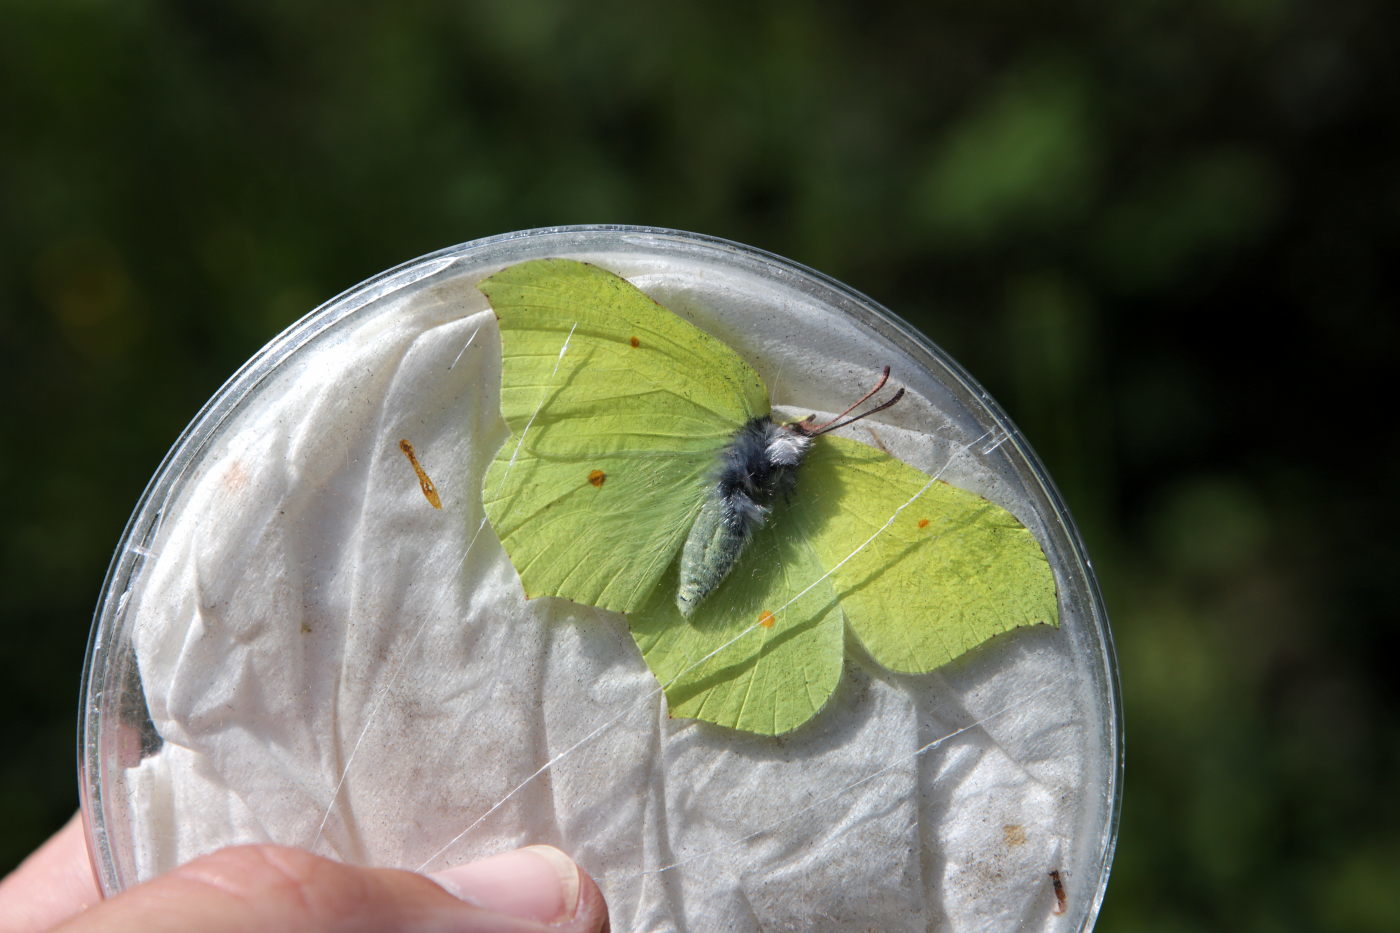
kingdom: Animalia
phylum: Arthropoda
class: Insecta
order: Lepidoptera
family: Pieridae
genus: Gonepteryx
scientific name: Gonepteryx rhamni
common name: Brimstone
